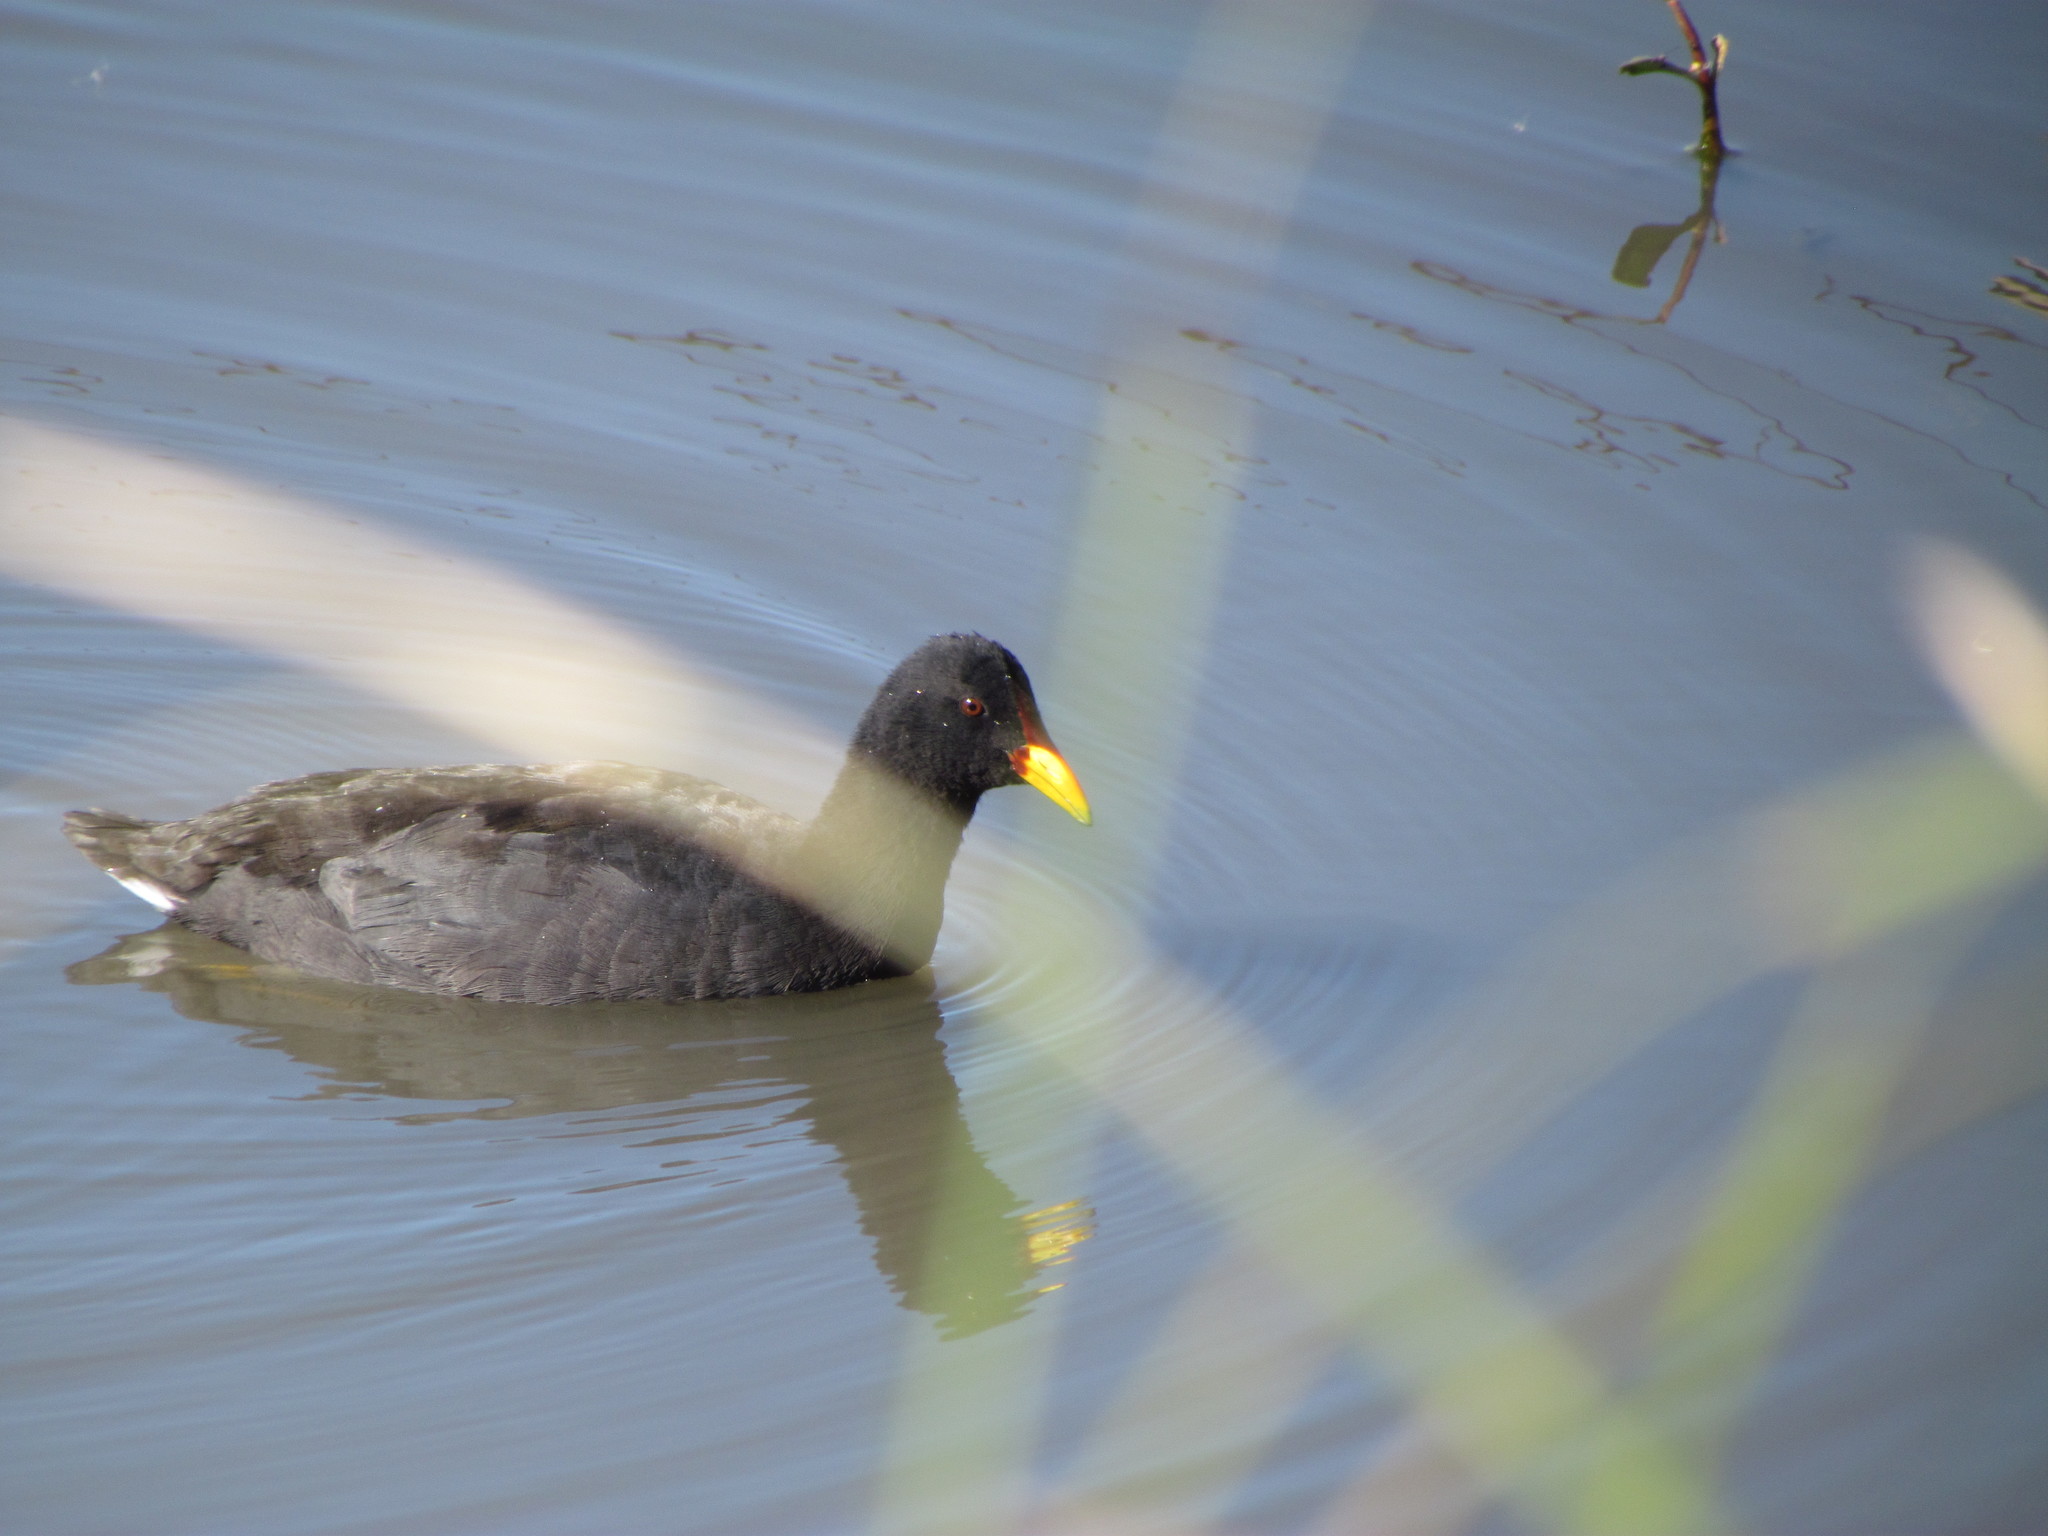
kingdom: Animalia
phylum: Chordata
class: Aves
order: Gruiformes
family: Rallidae
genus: Fulica
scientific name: Fulica rufifrons
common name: Red-fronted coot
